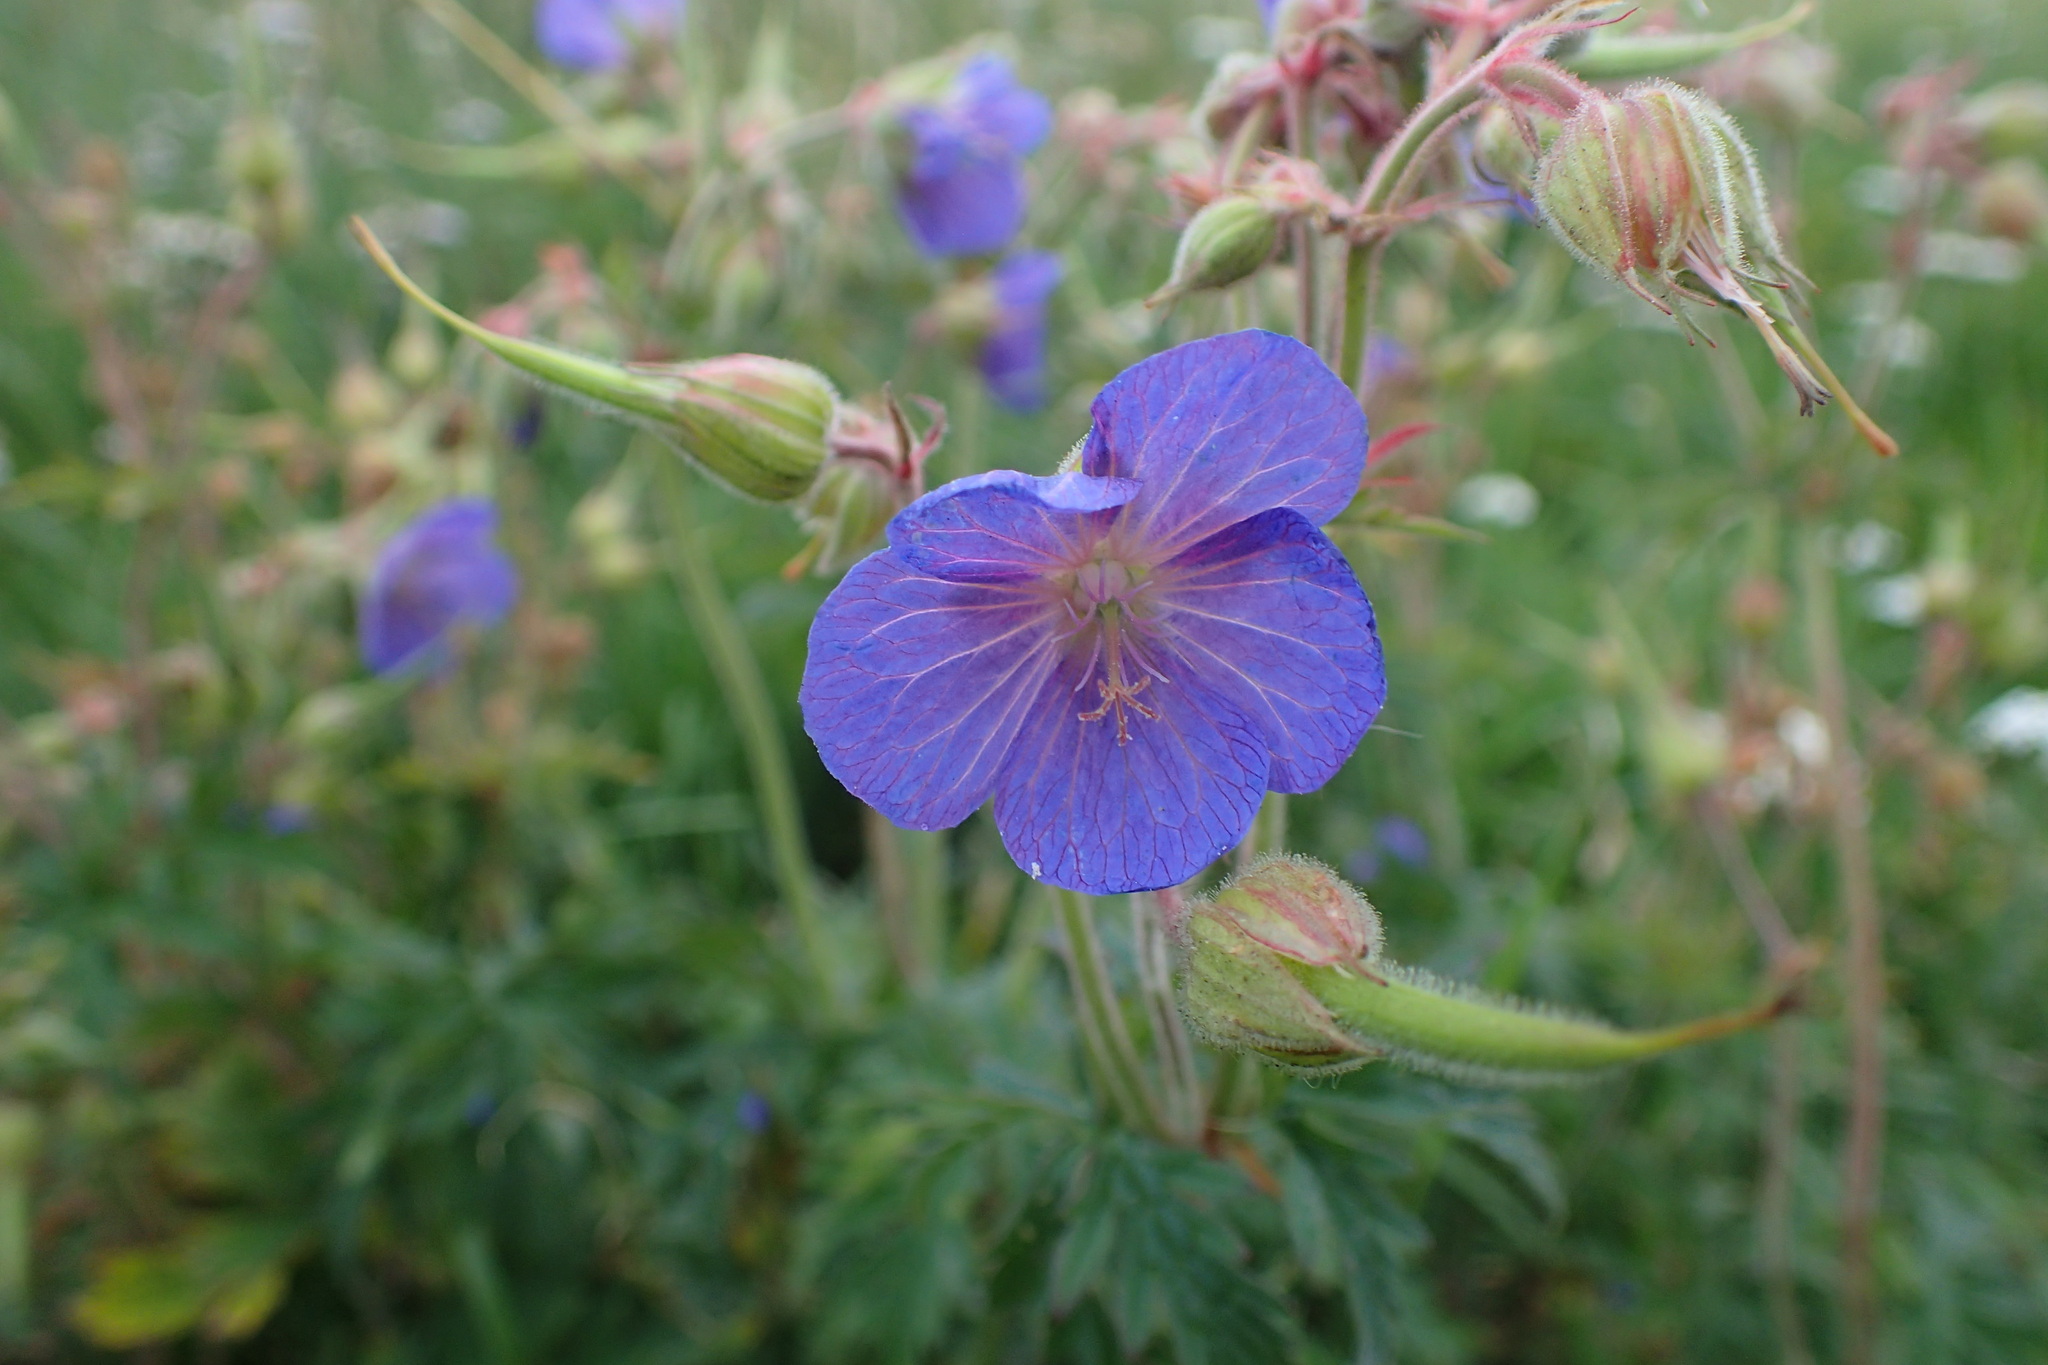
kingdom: Plantae
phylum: Tracheophyta
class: Magnoliopsida
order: Geraniales
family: Geraniaceae
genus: Geranium
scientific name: Geranium pratense
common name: Meadow crane's-bill
